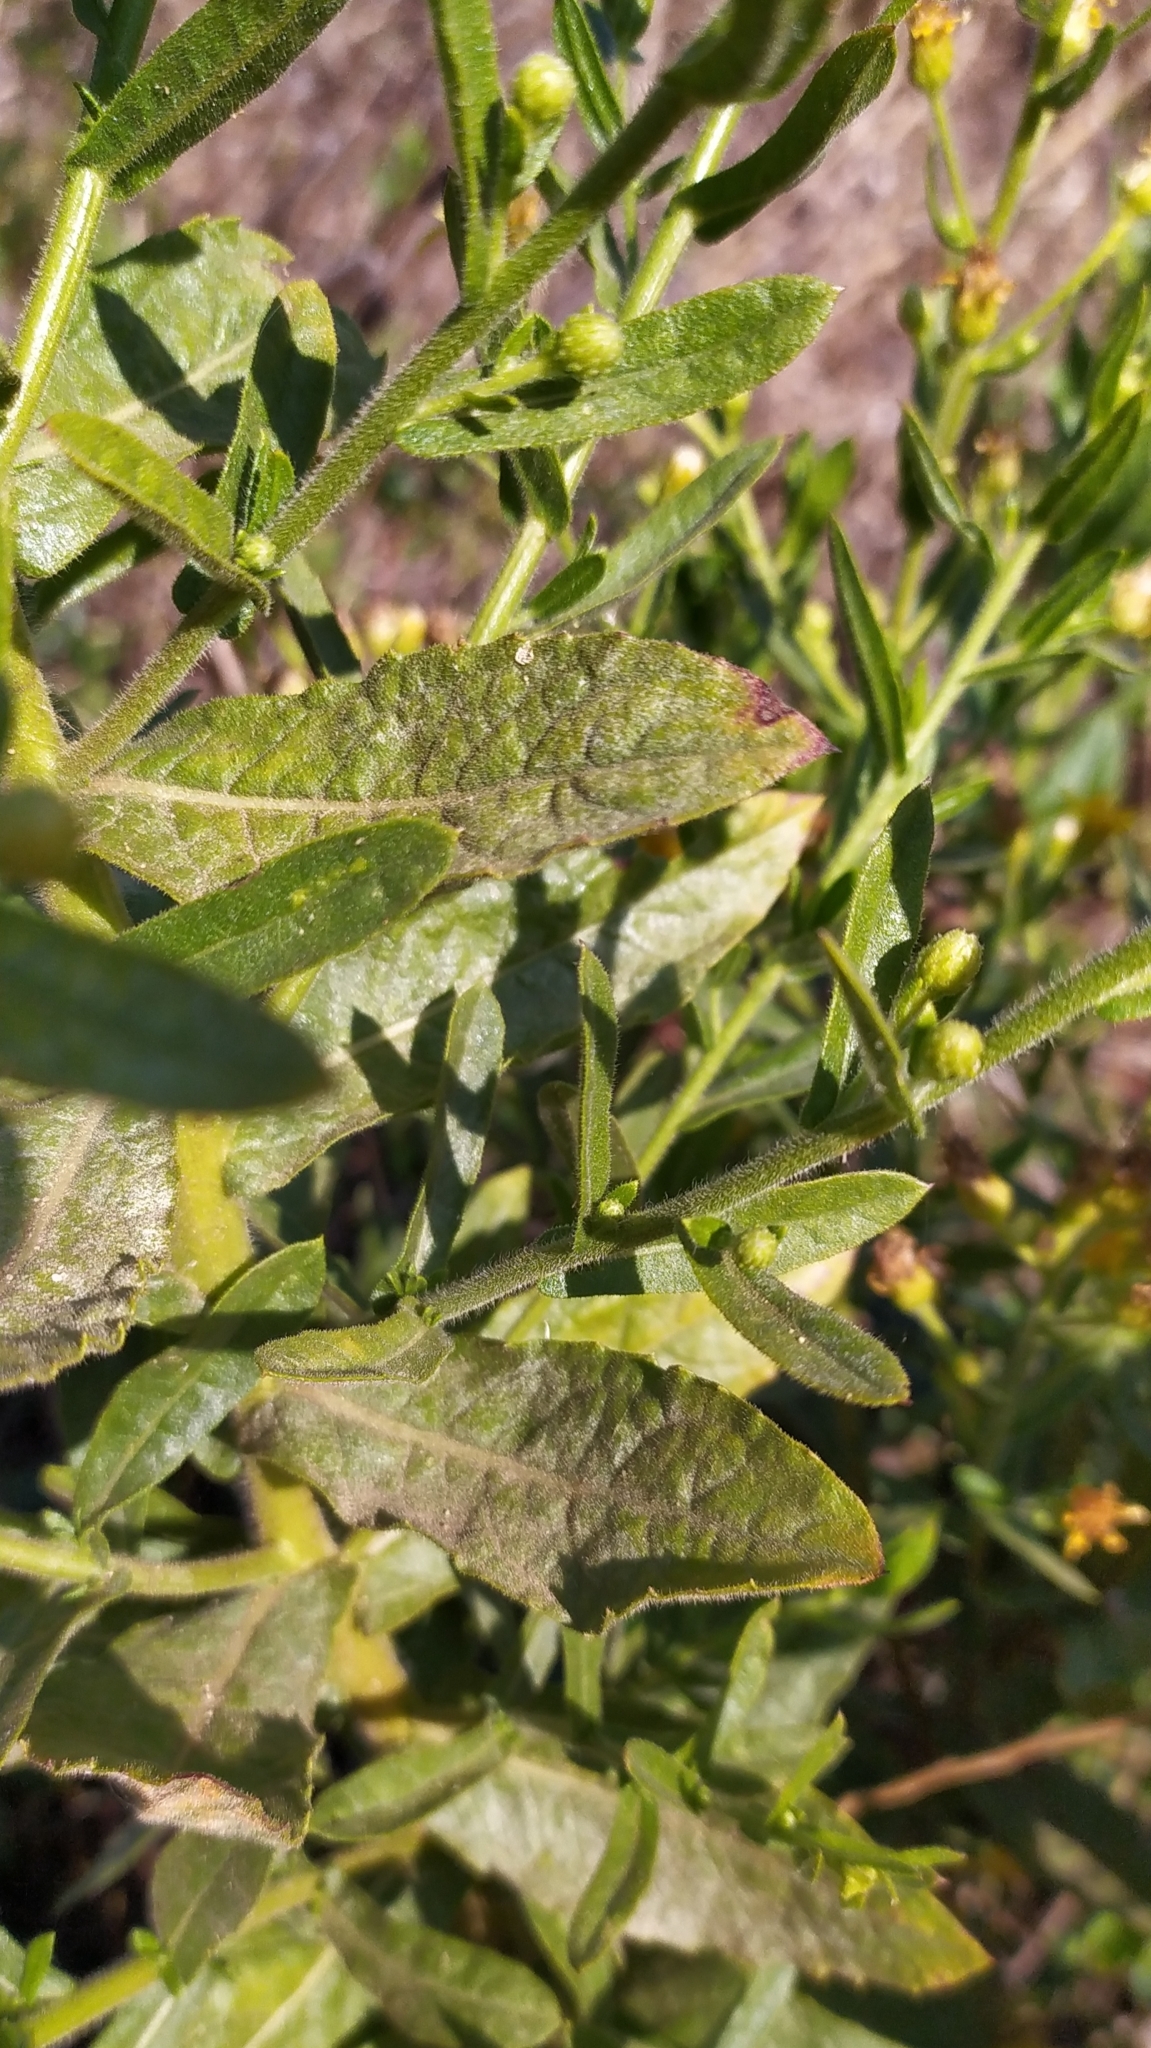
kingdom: Plantae
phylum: Tracheophyta
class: Magnoliopsida
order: Asterales
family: Asteraceae
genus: Dittrichia
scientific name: Dittrichia viscosa
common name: Woody fleabane
